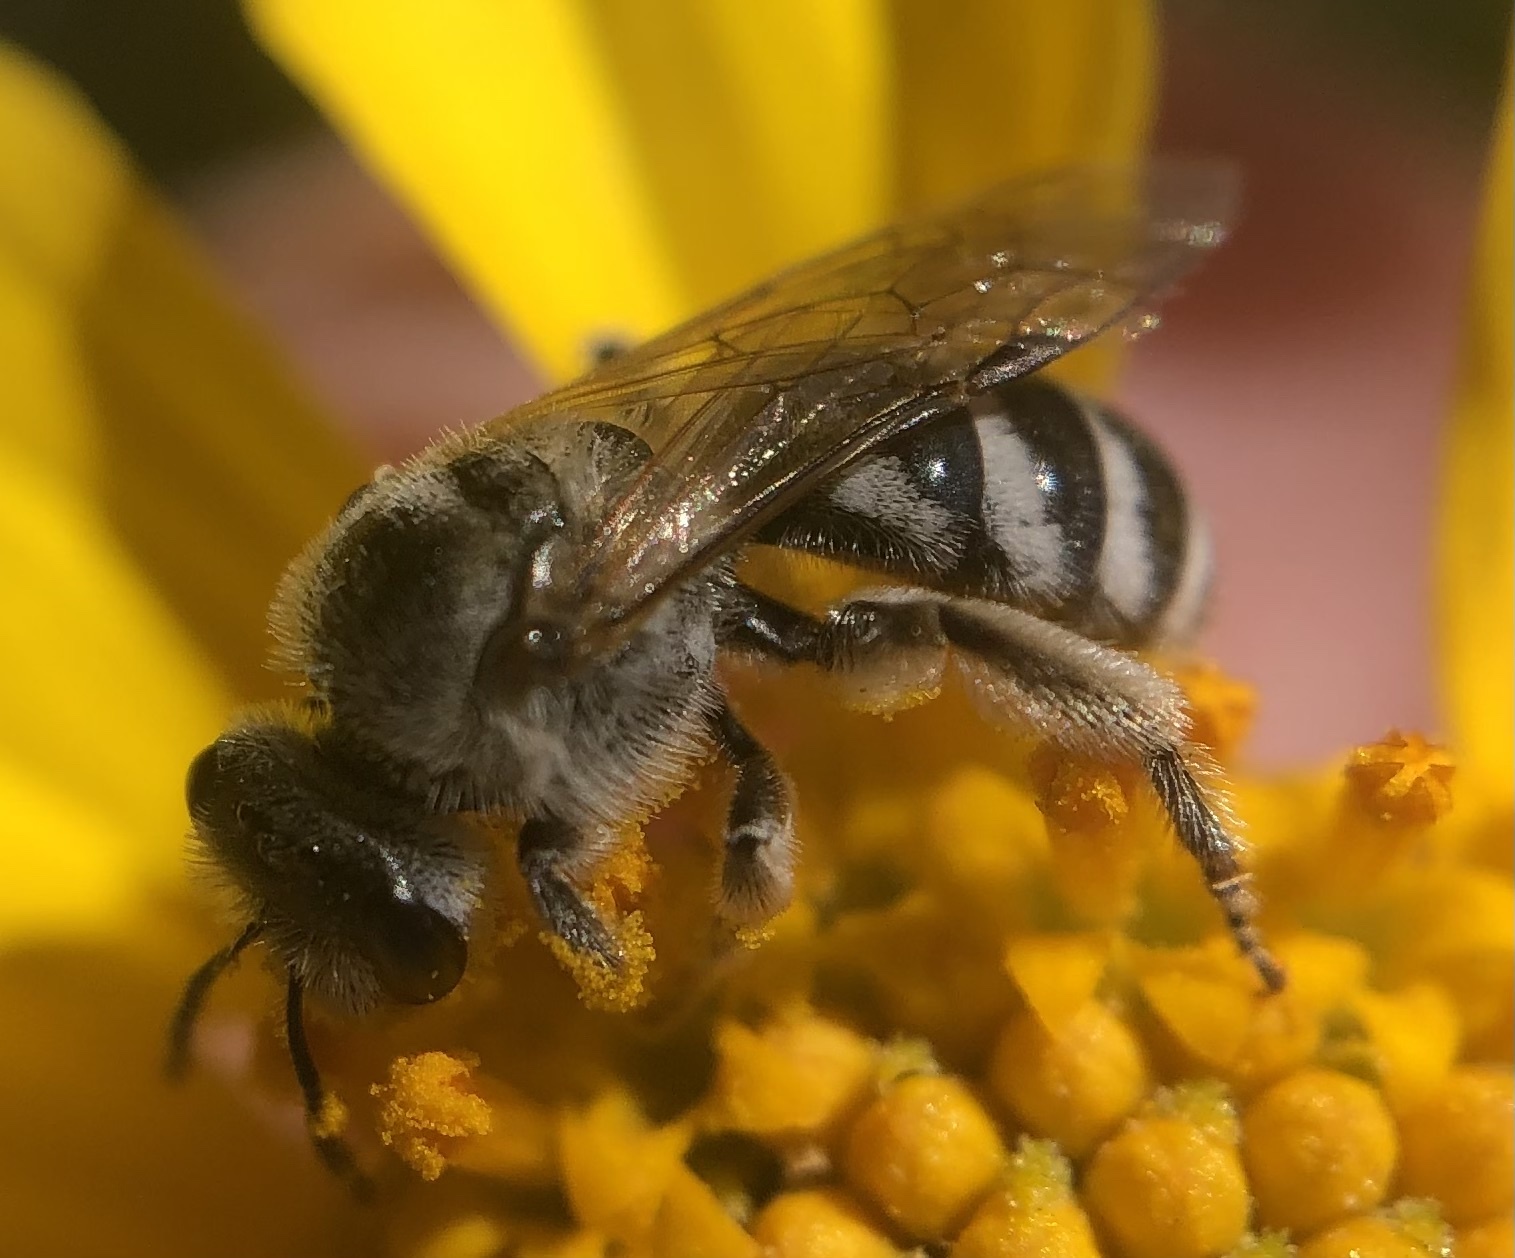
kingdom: Animalia
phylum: Arthropoda
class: Insecta
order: Hymenoptera
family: Halictidae
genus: Lasioglossum
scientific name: Lasioglossum sisymbrii
